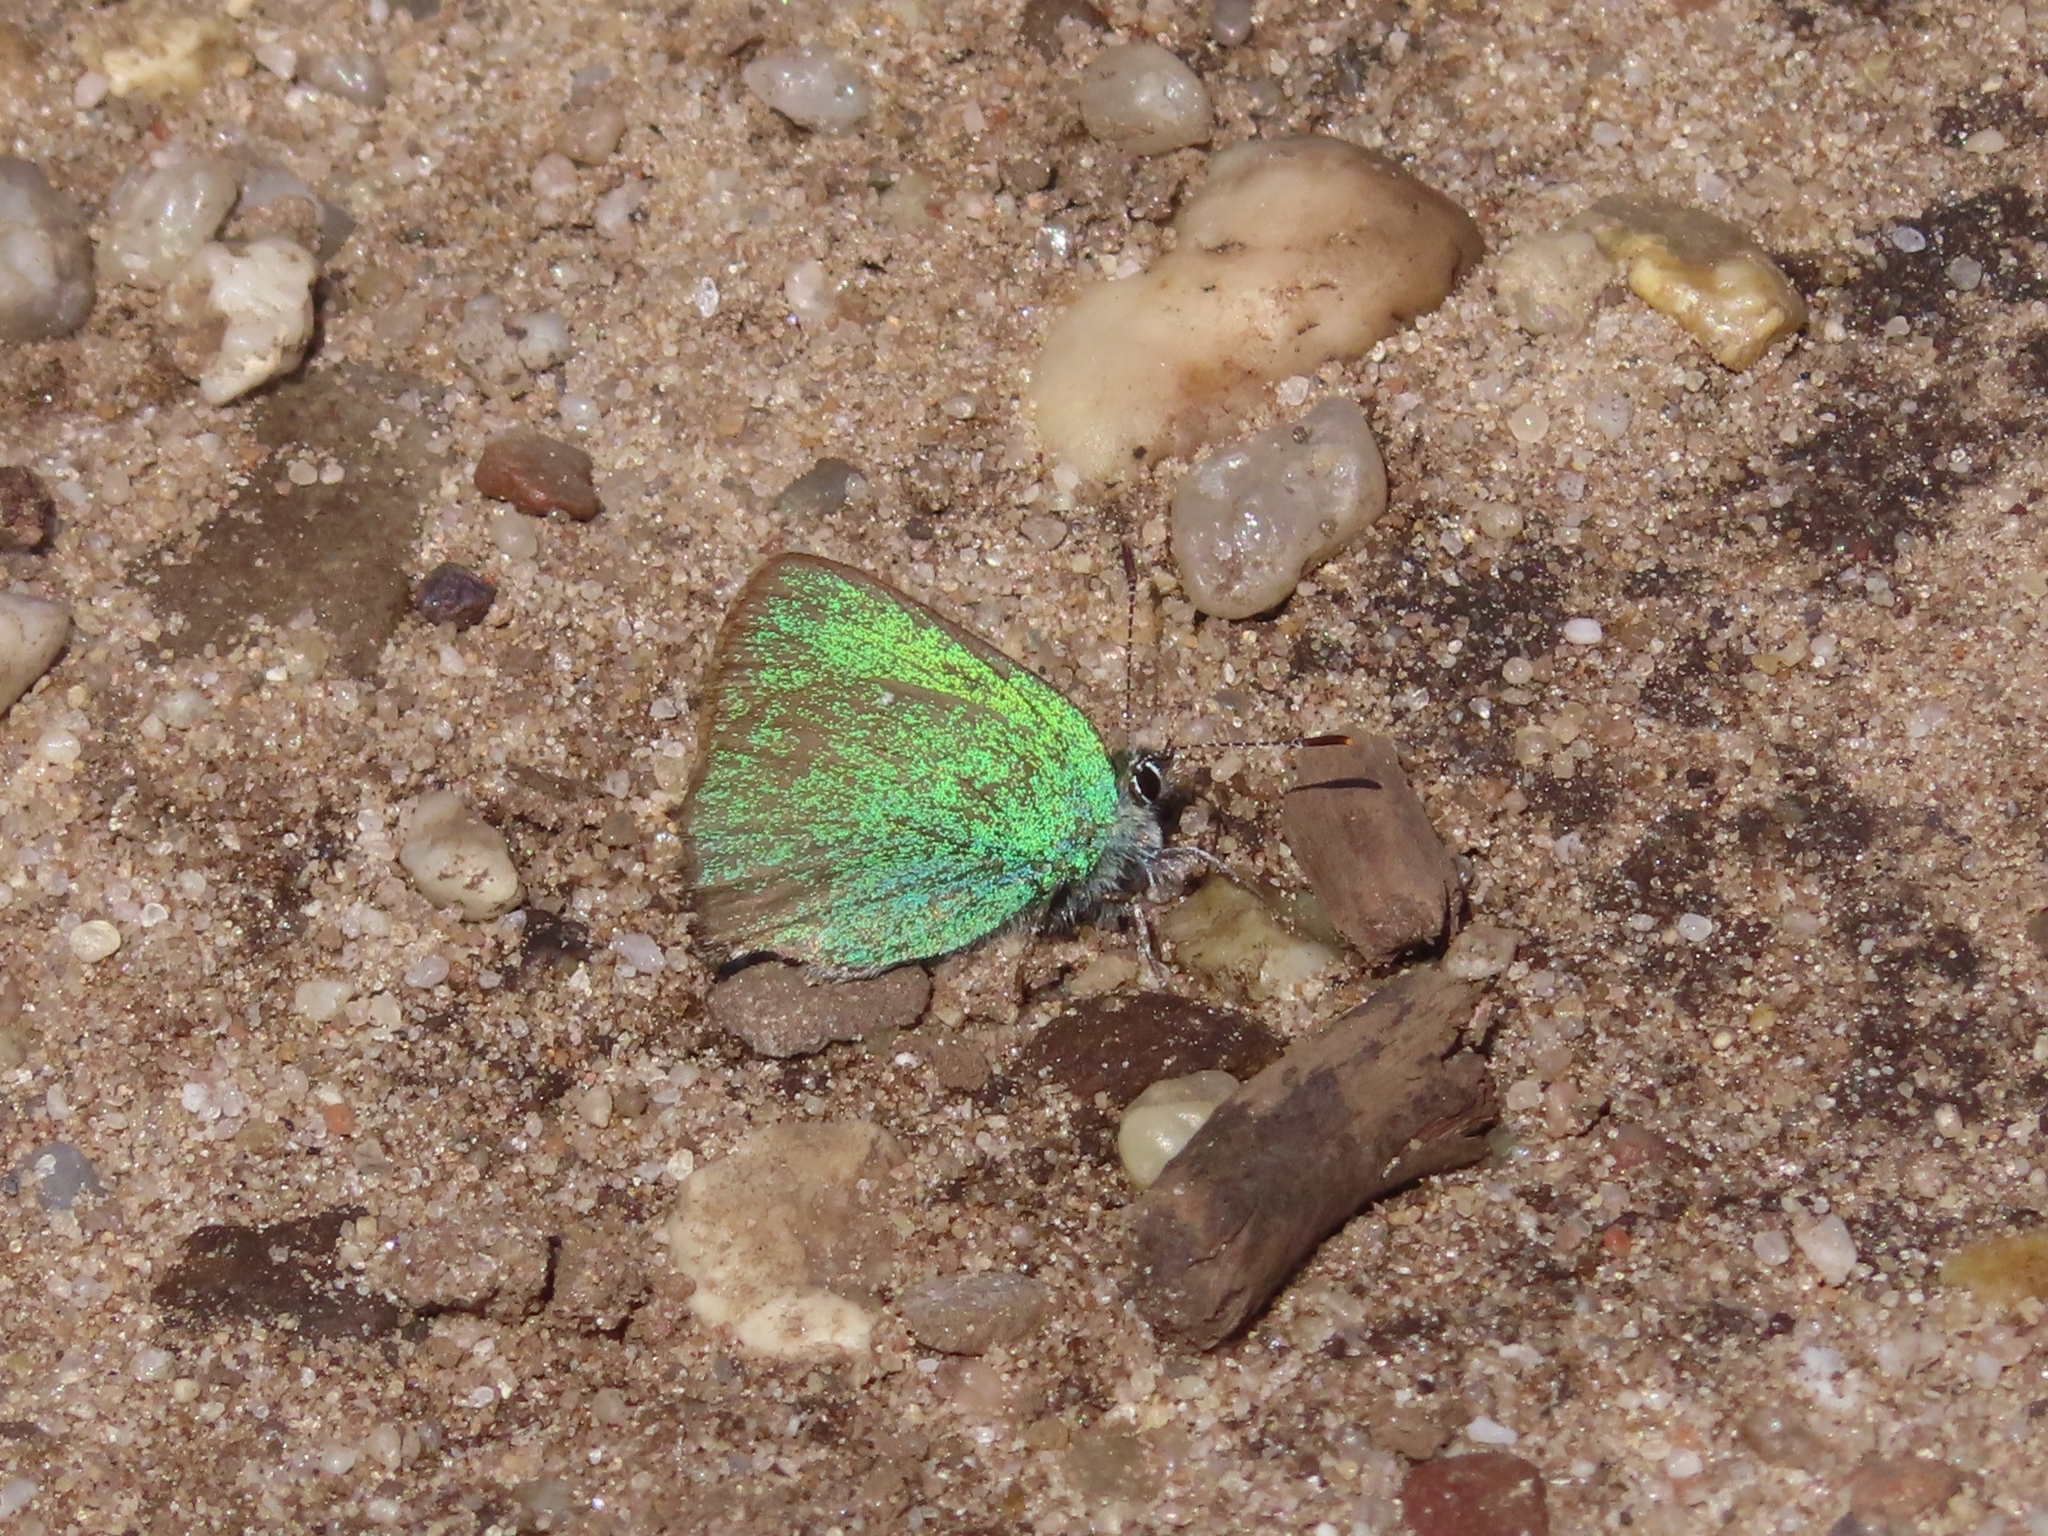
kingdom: Animalia
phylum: Arthropoda
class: Insecta
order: Lepidoptera
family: Lycaenidae
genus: Callophrys
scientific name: Callophrys rubi
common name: Green hairstreak
